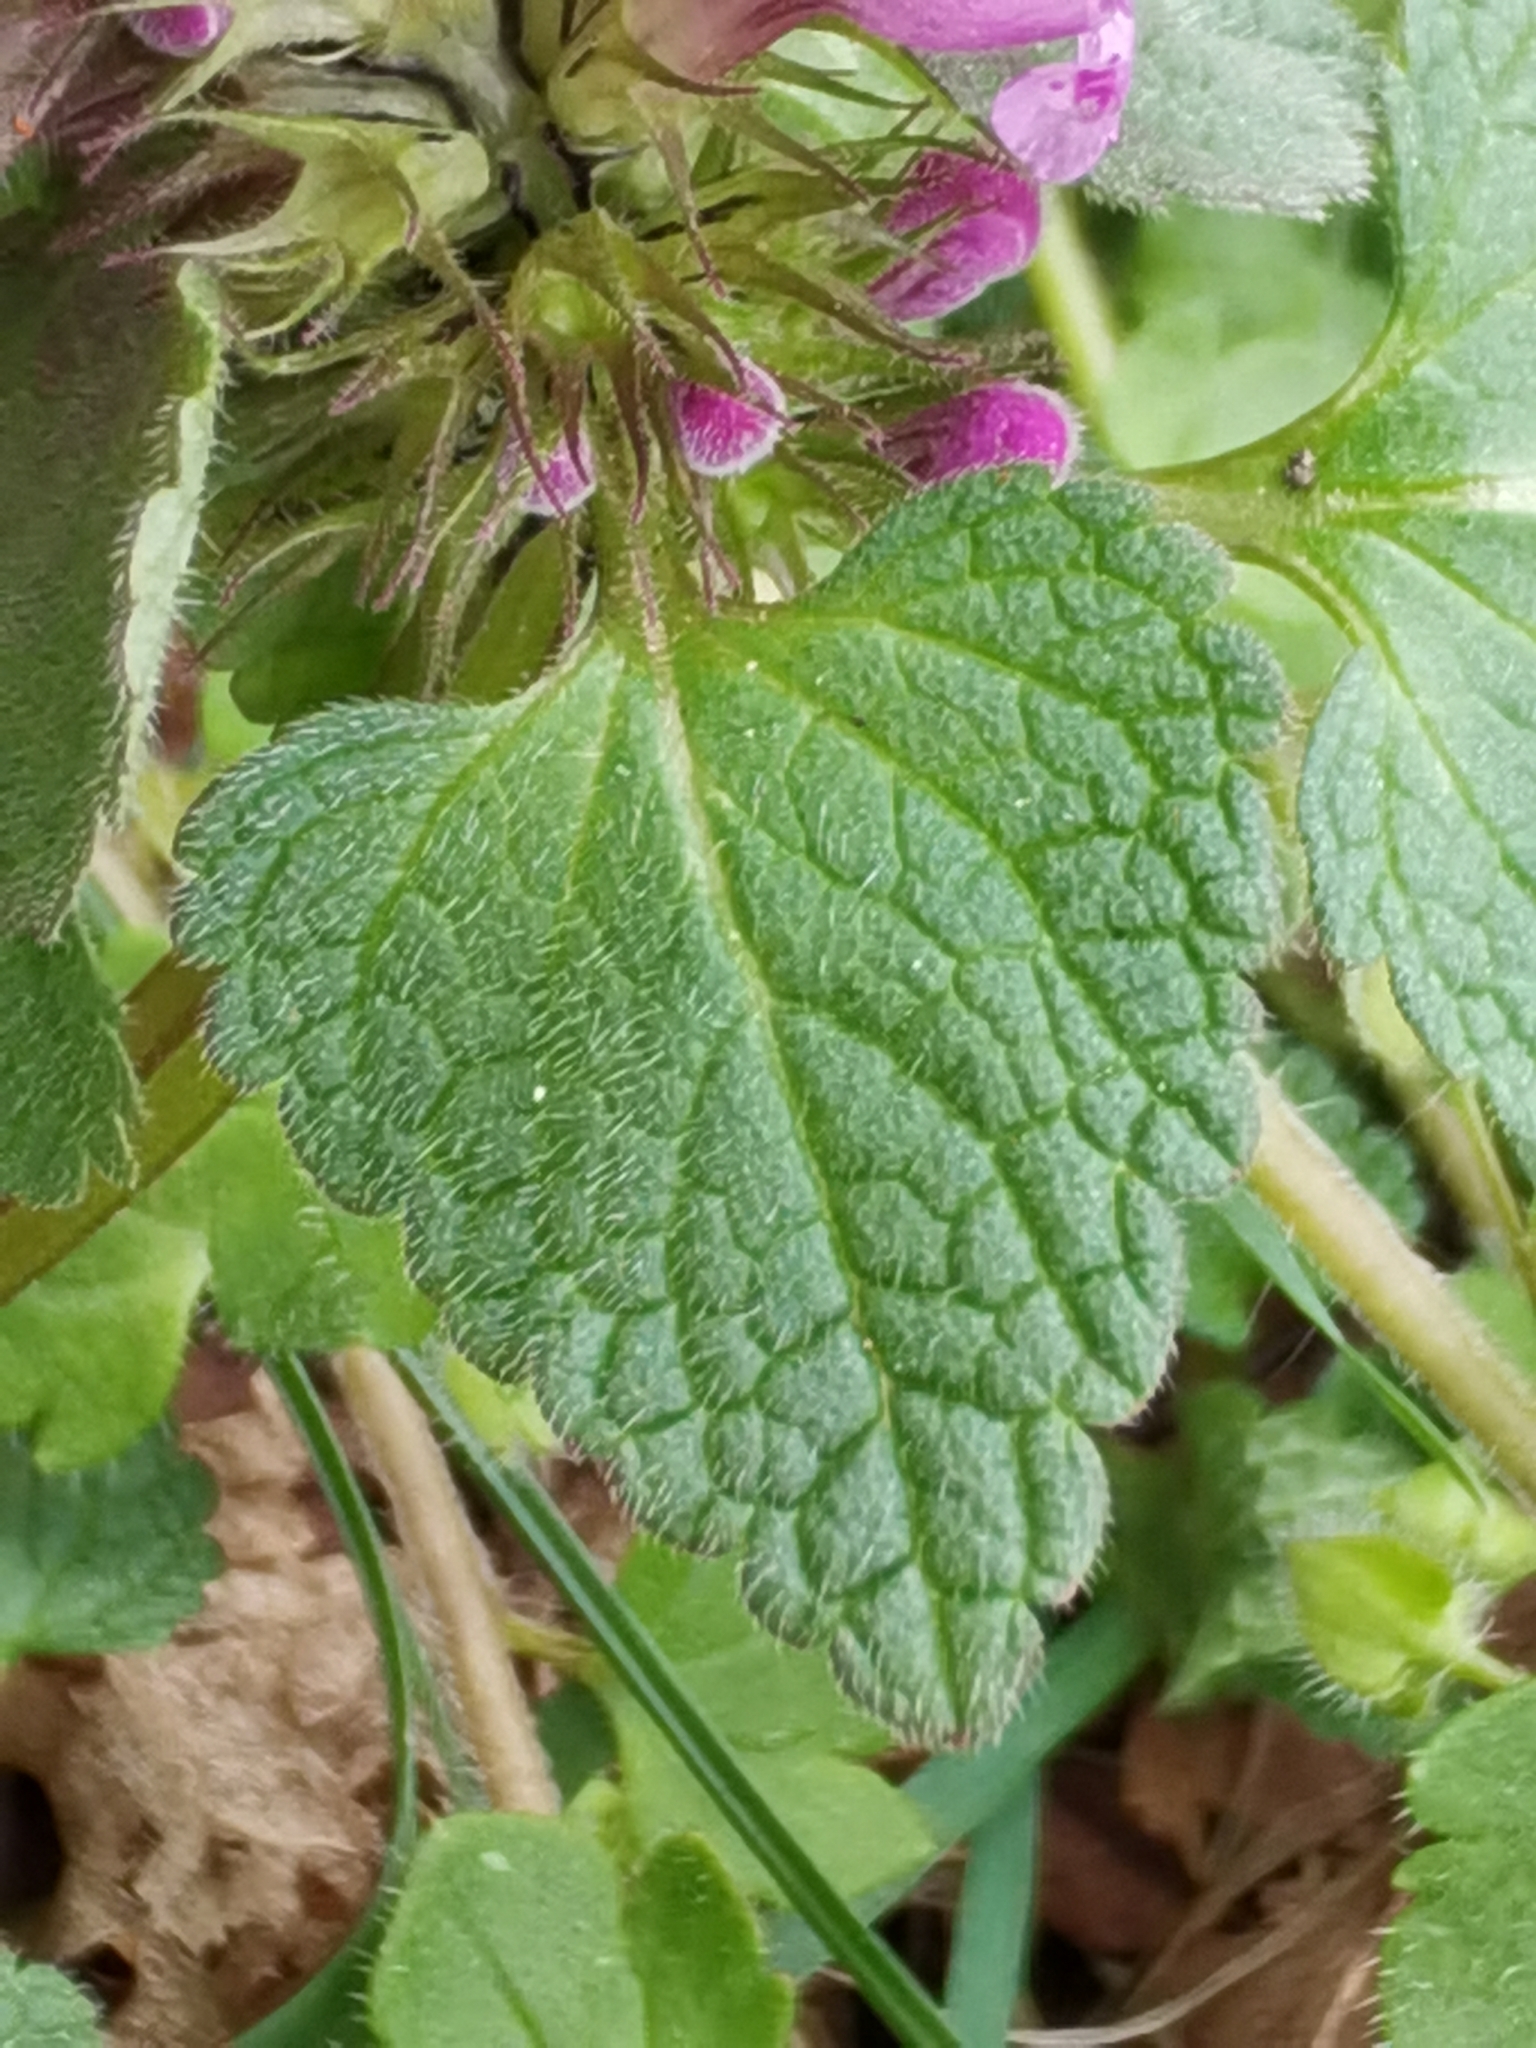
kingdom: Plantae
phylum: Tracheophyta
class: Magnoliopsida
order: Lamiales
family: Lamiaceae
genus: Lamium
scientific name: Lamium purpureum
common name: Red dead-nettle
